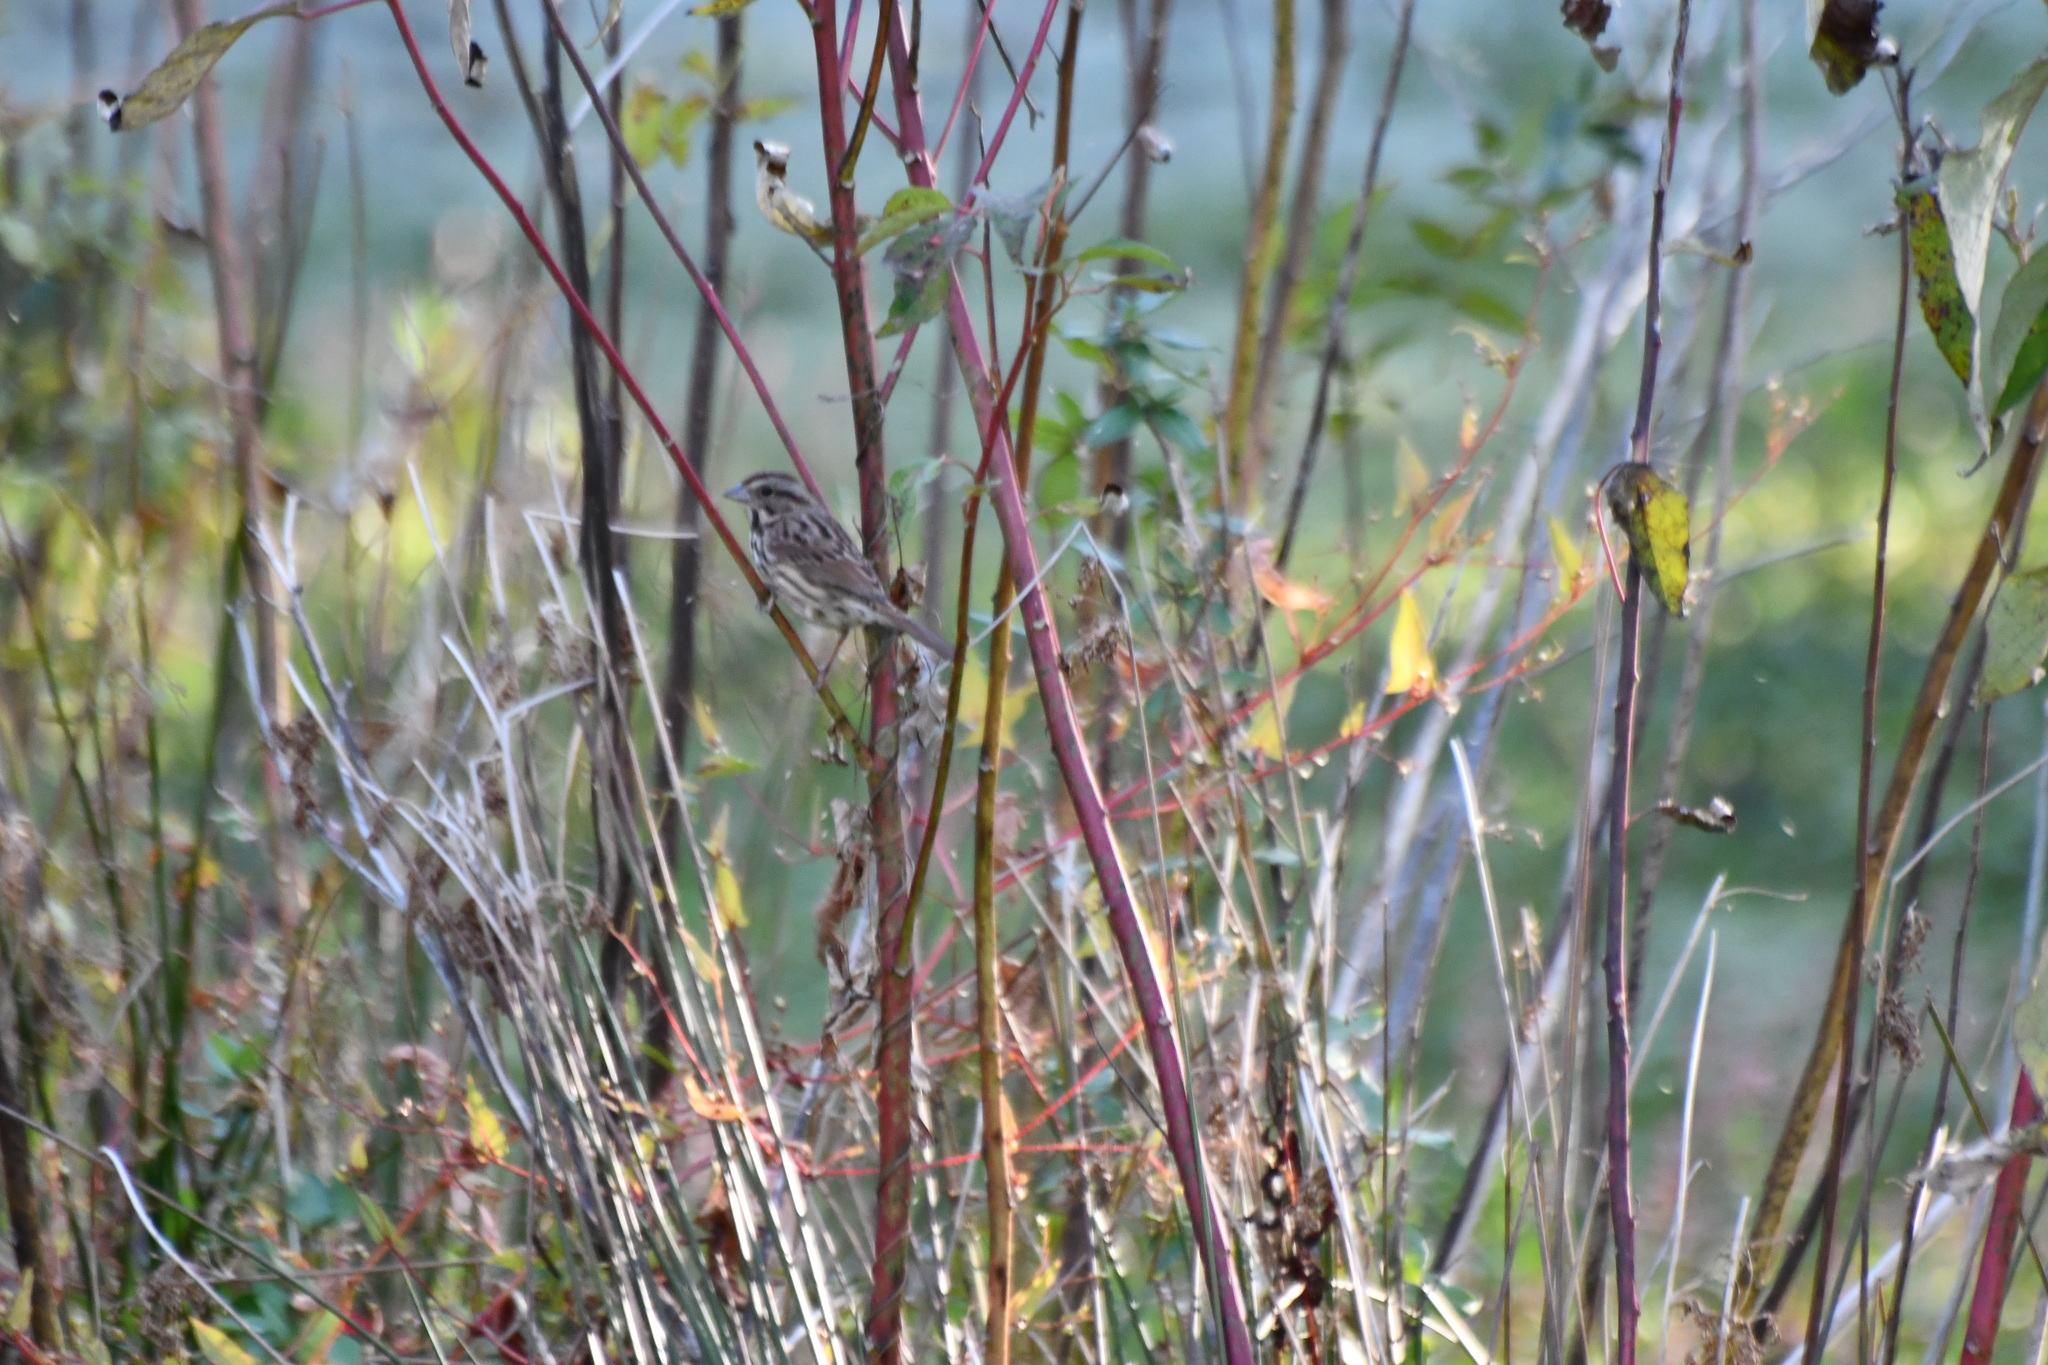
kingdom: Animalia
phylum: Chordata
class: Aves
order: Passeriformes
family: Passerellidae
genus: Melospiza
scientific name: Melospiza melodia
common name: Song sparrow
